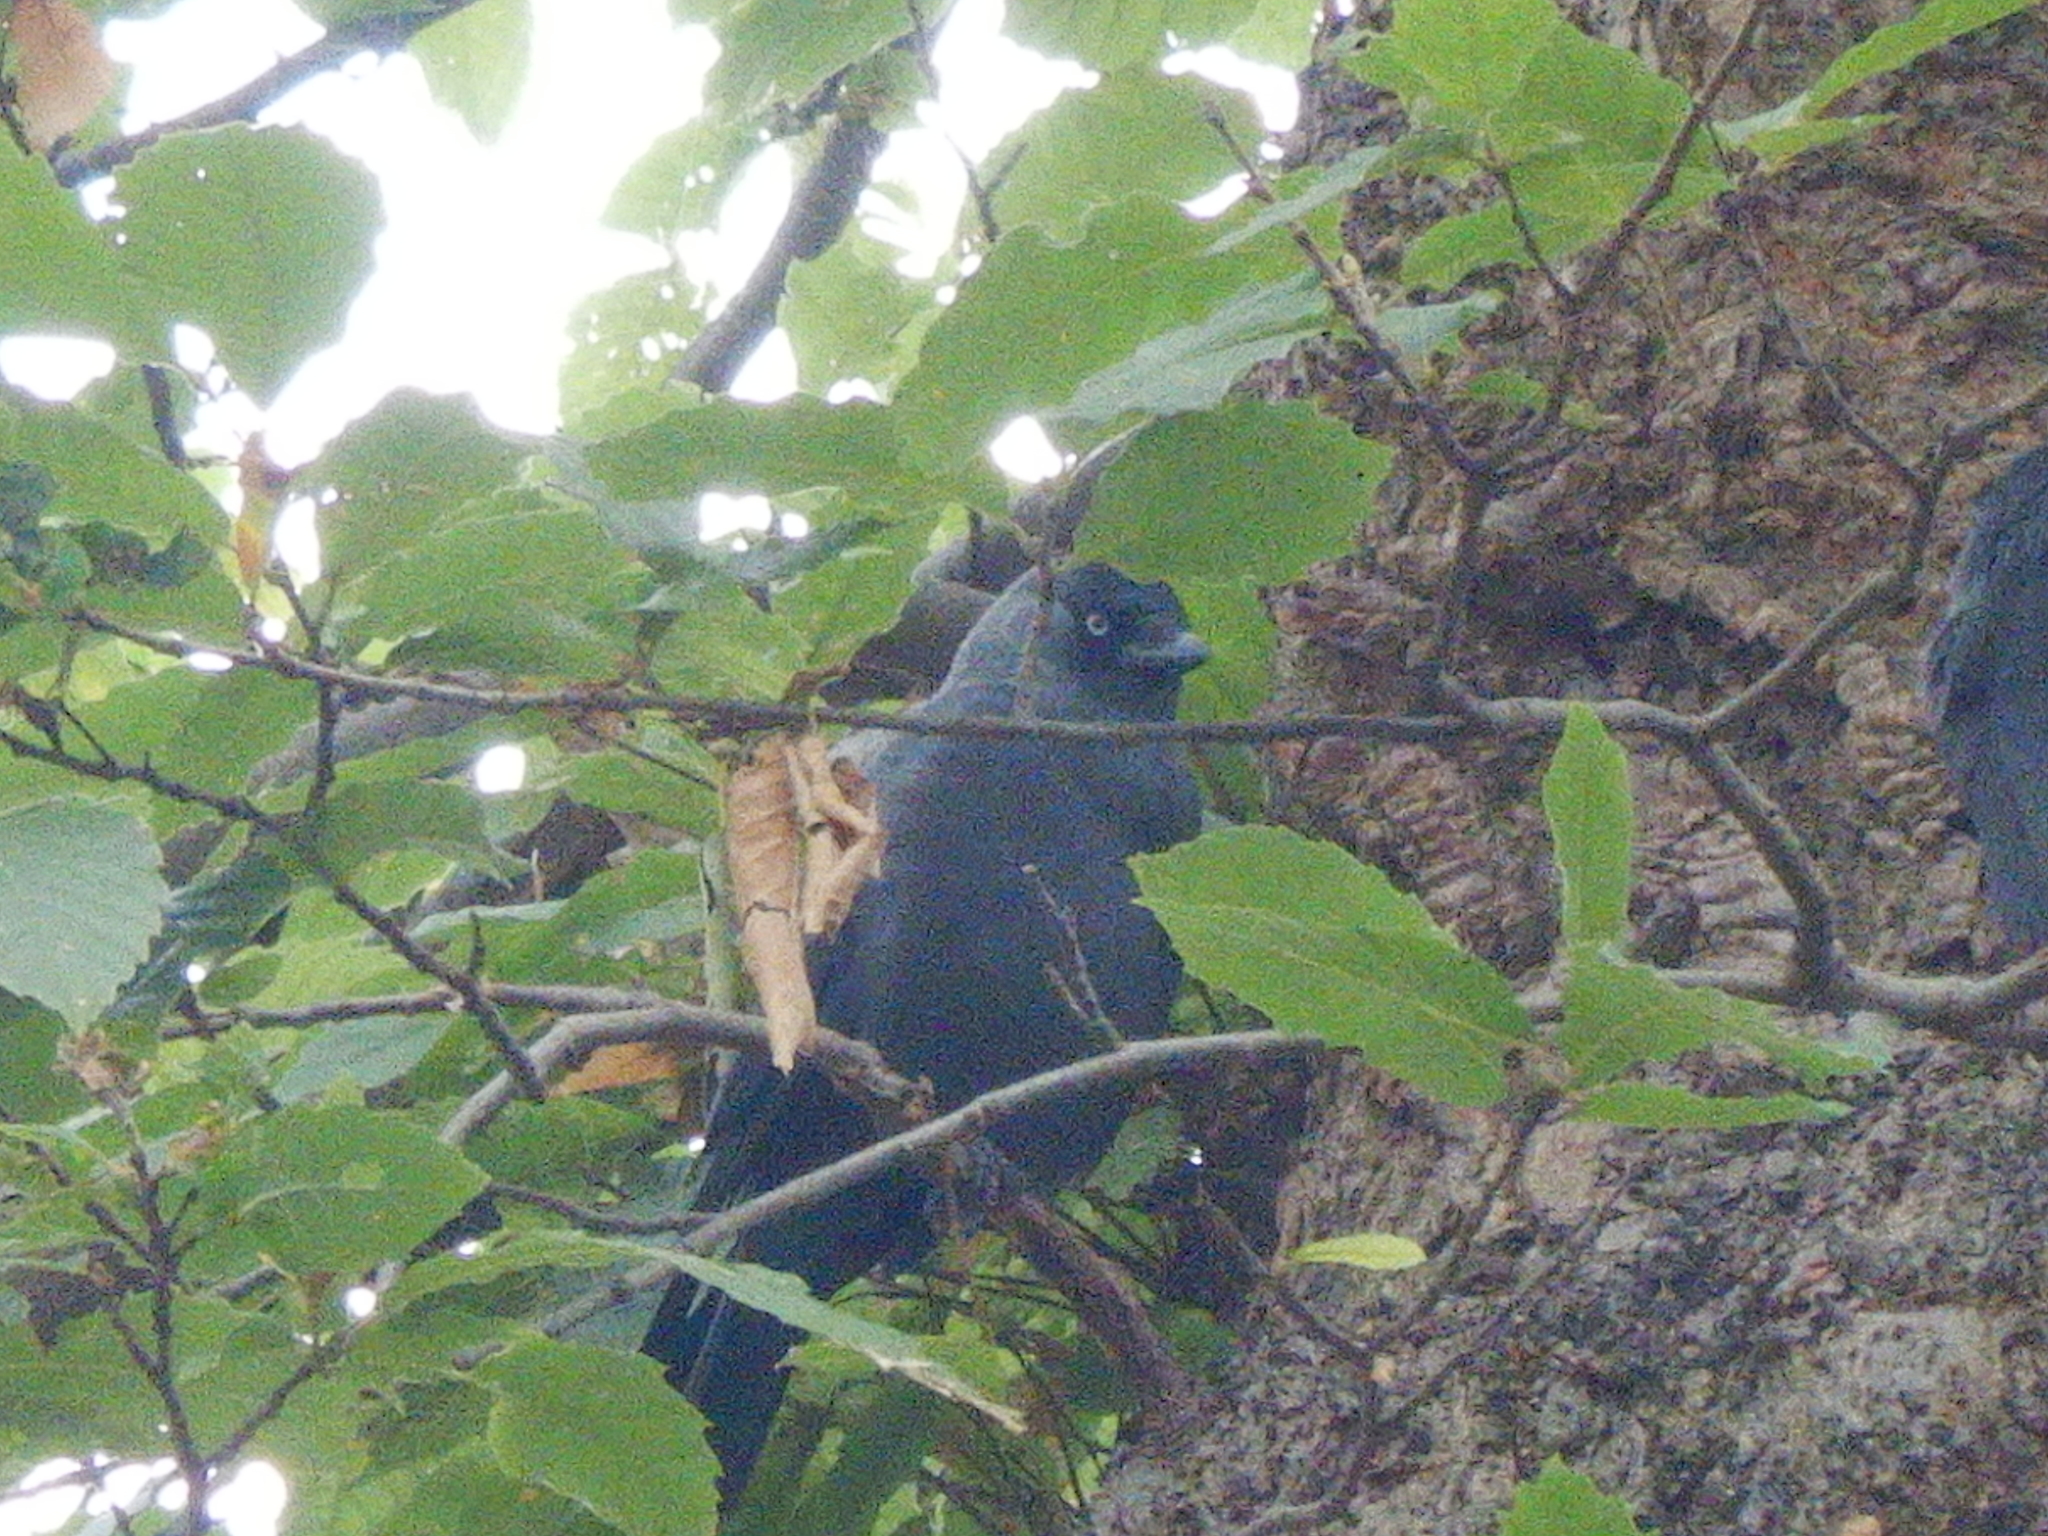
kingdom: Animalia
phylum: Chordata
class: Aves
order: Passeriformes
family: Corvidae
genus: Coloeus
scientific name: Coloeus monedula
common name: Western jackdaw
